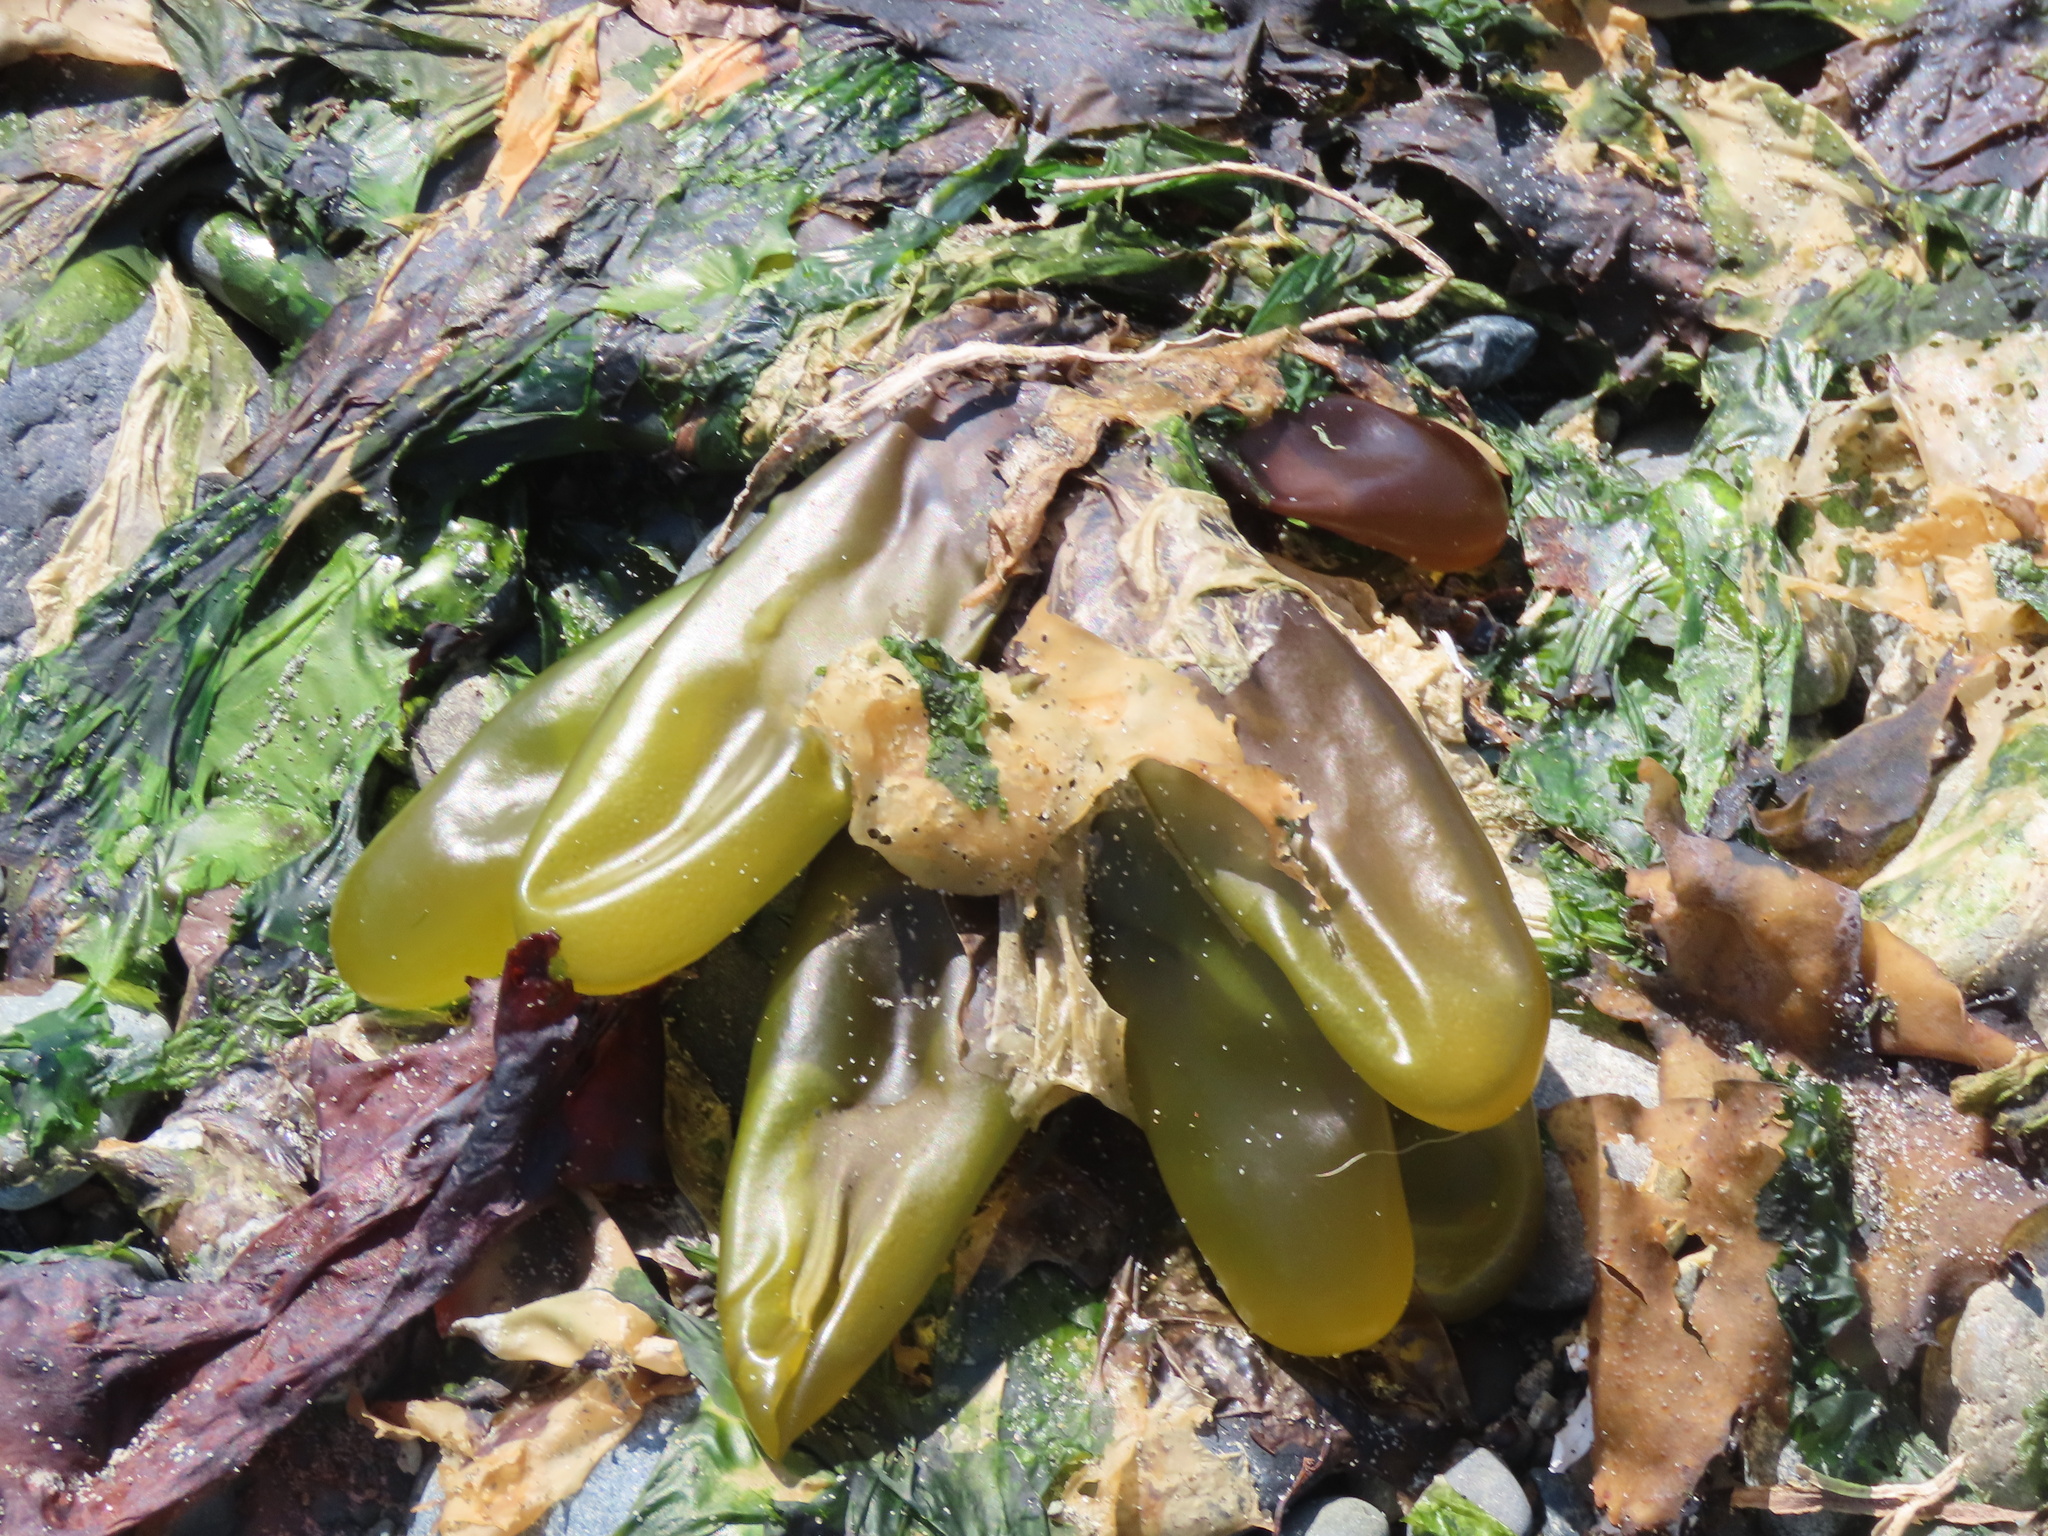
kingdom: Plantae
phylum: Rhodophyta
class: Florideophyceae
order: Palmariales
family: Palmariaceae
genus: Halosaccion
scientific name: Halosaccion glandiforme
